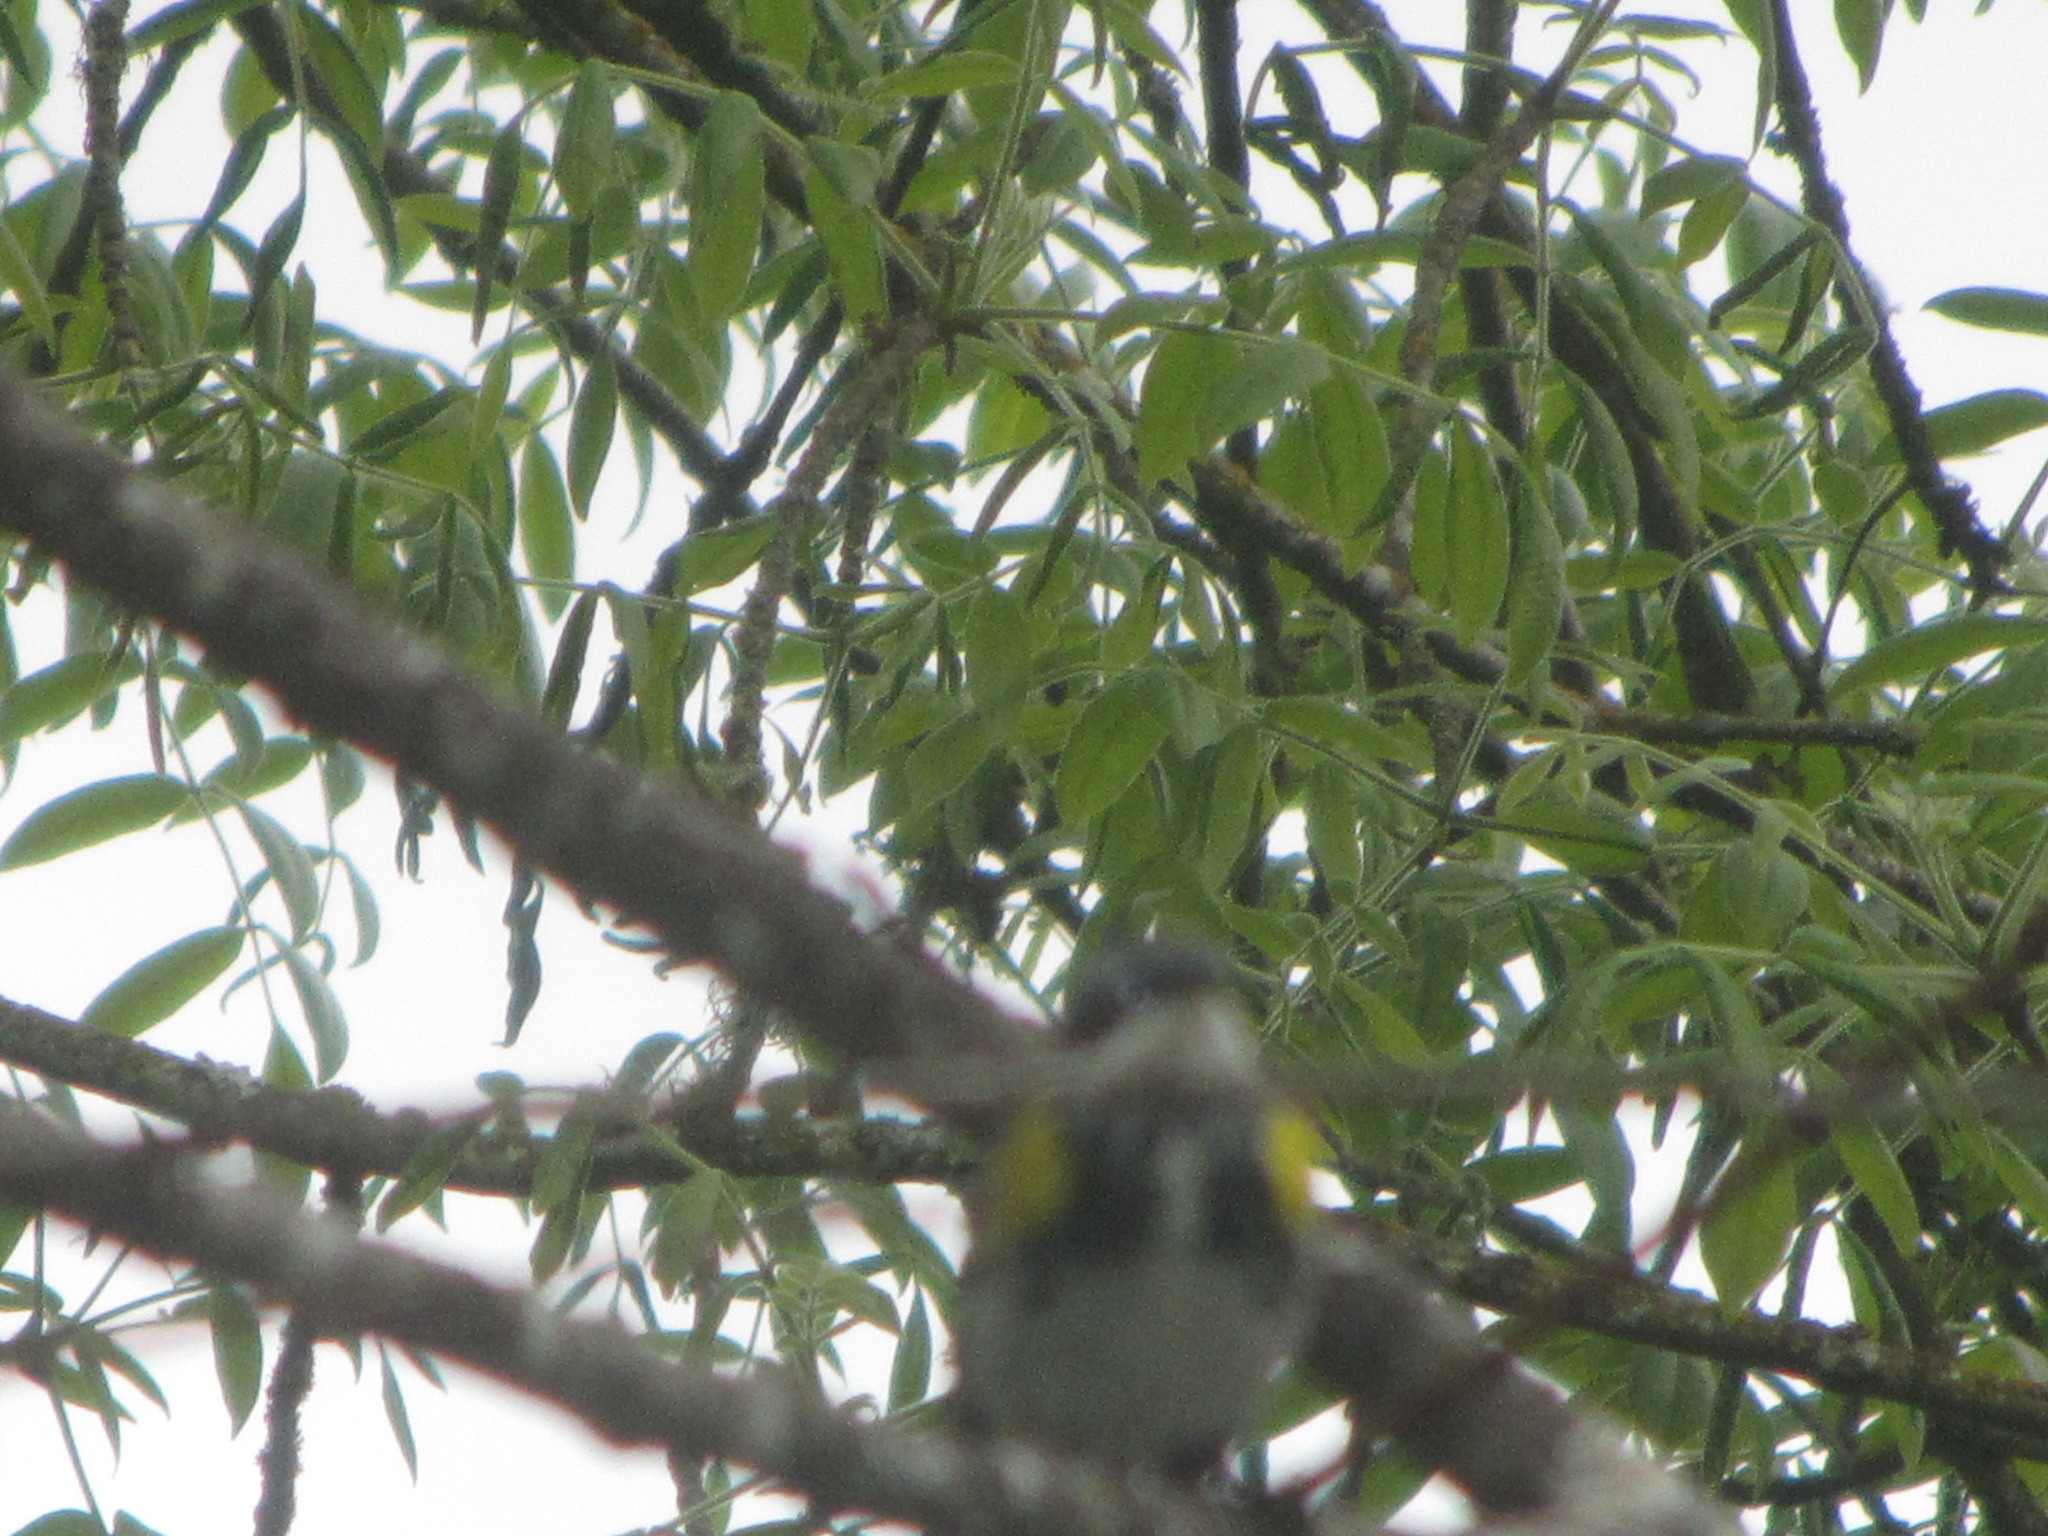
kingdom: Animalia
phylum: Chordata
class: Aves
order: Passeriformes
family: Parulidae
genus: Setophaga
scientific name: Setophaga coronata
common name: Myrtle warbler
